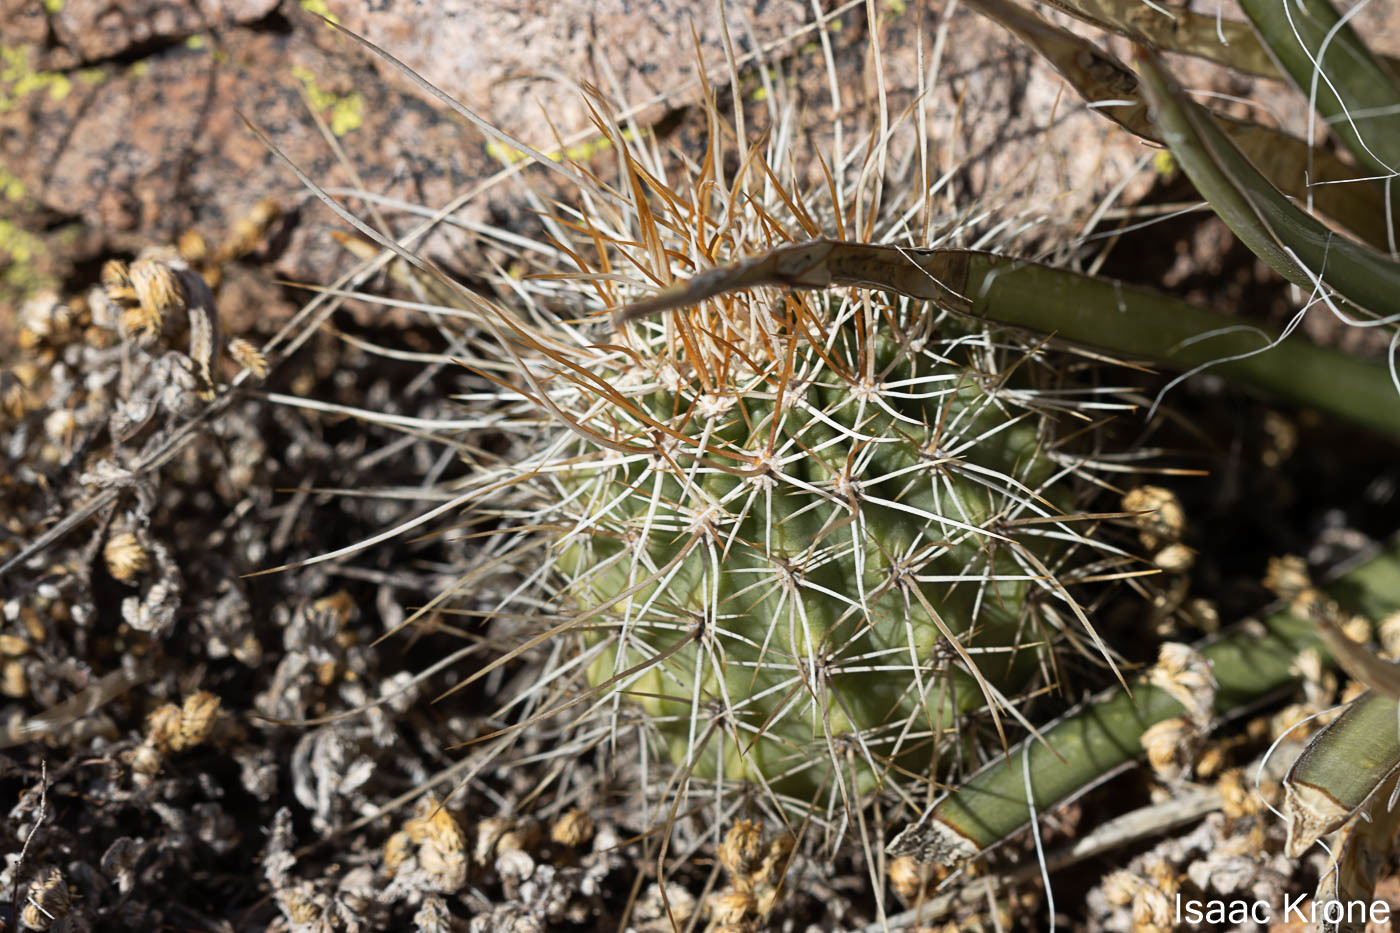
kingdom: Plantae
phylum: Tracheophyta
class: Magnoliopsida
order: Caryophyllales
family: Cactaceae
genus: Echinocereus
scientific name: Echinocereus engelmannii
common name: Engelmann's hedgehog cactus
